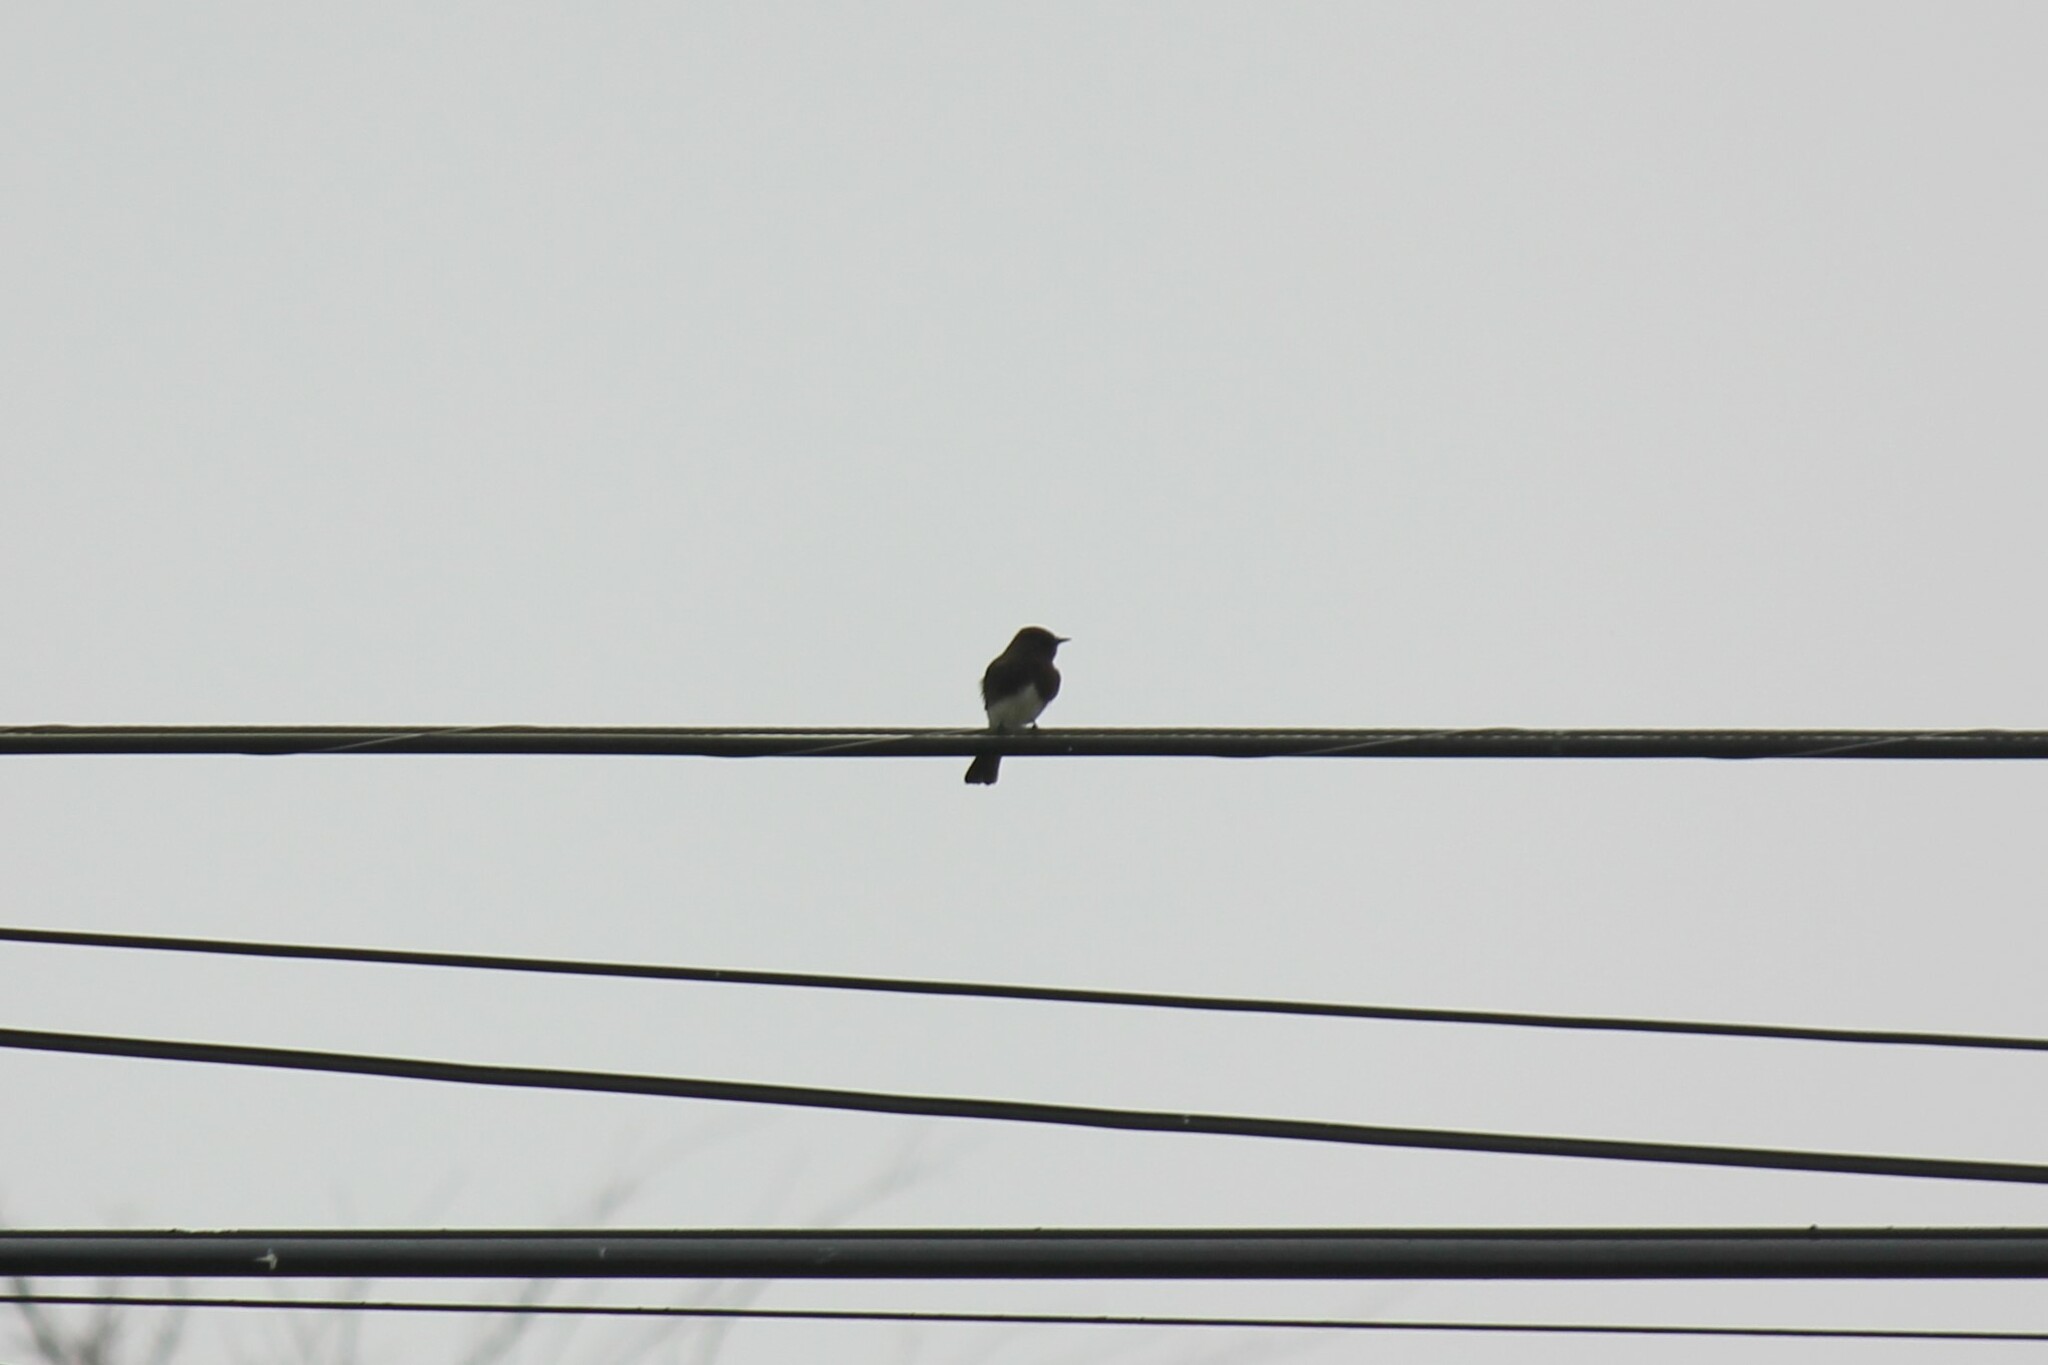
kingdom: Animalia
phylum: Chordata
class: Aves
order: Passeriformes
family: Tyrannidae
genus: Sayornis
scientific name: Sayornis nigricans
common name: Black phoebe
